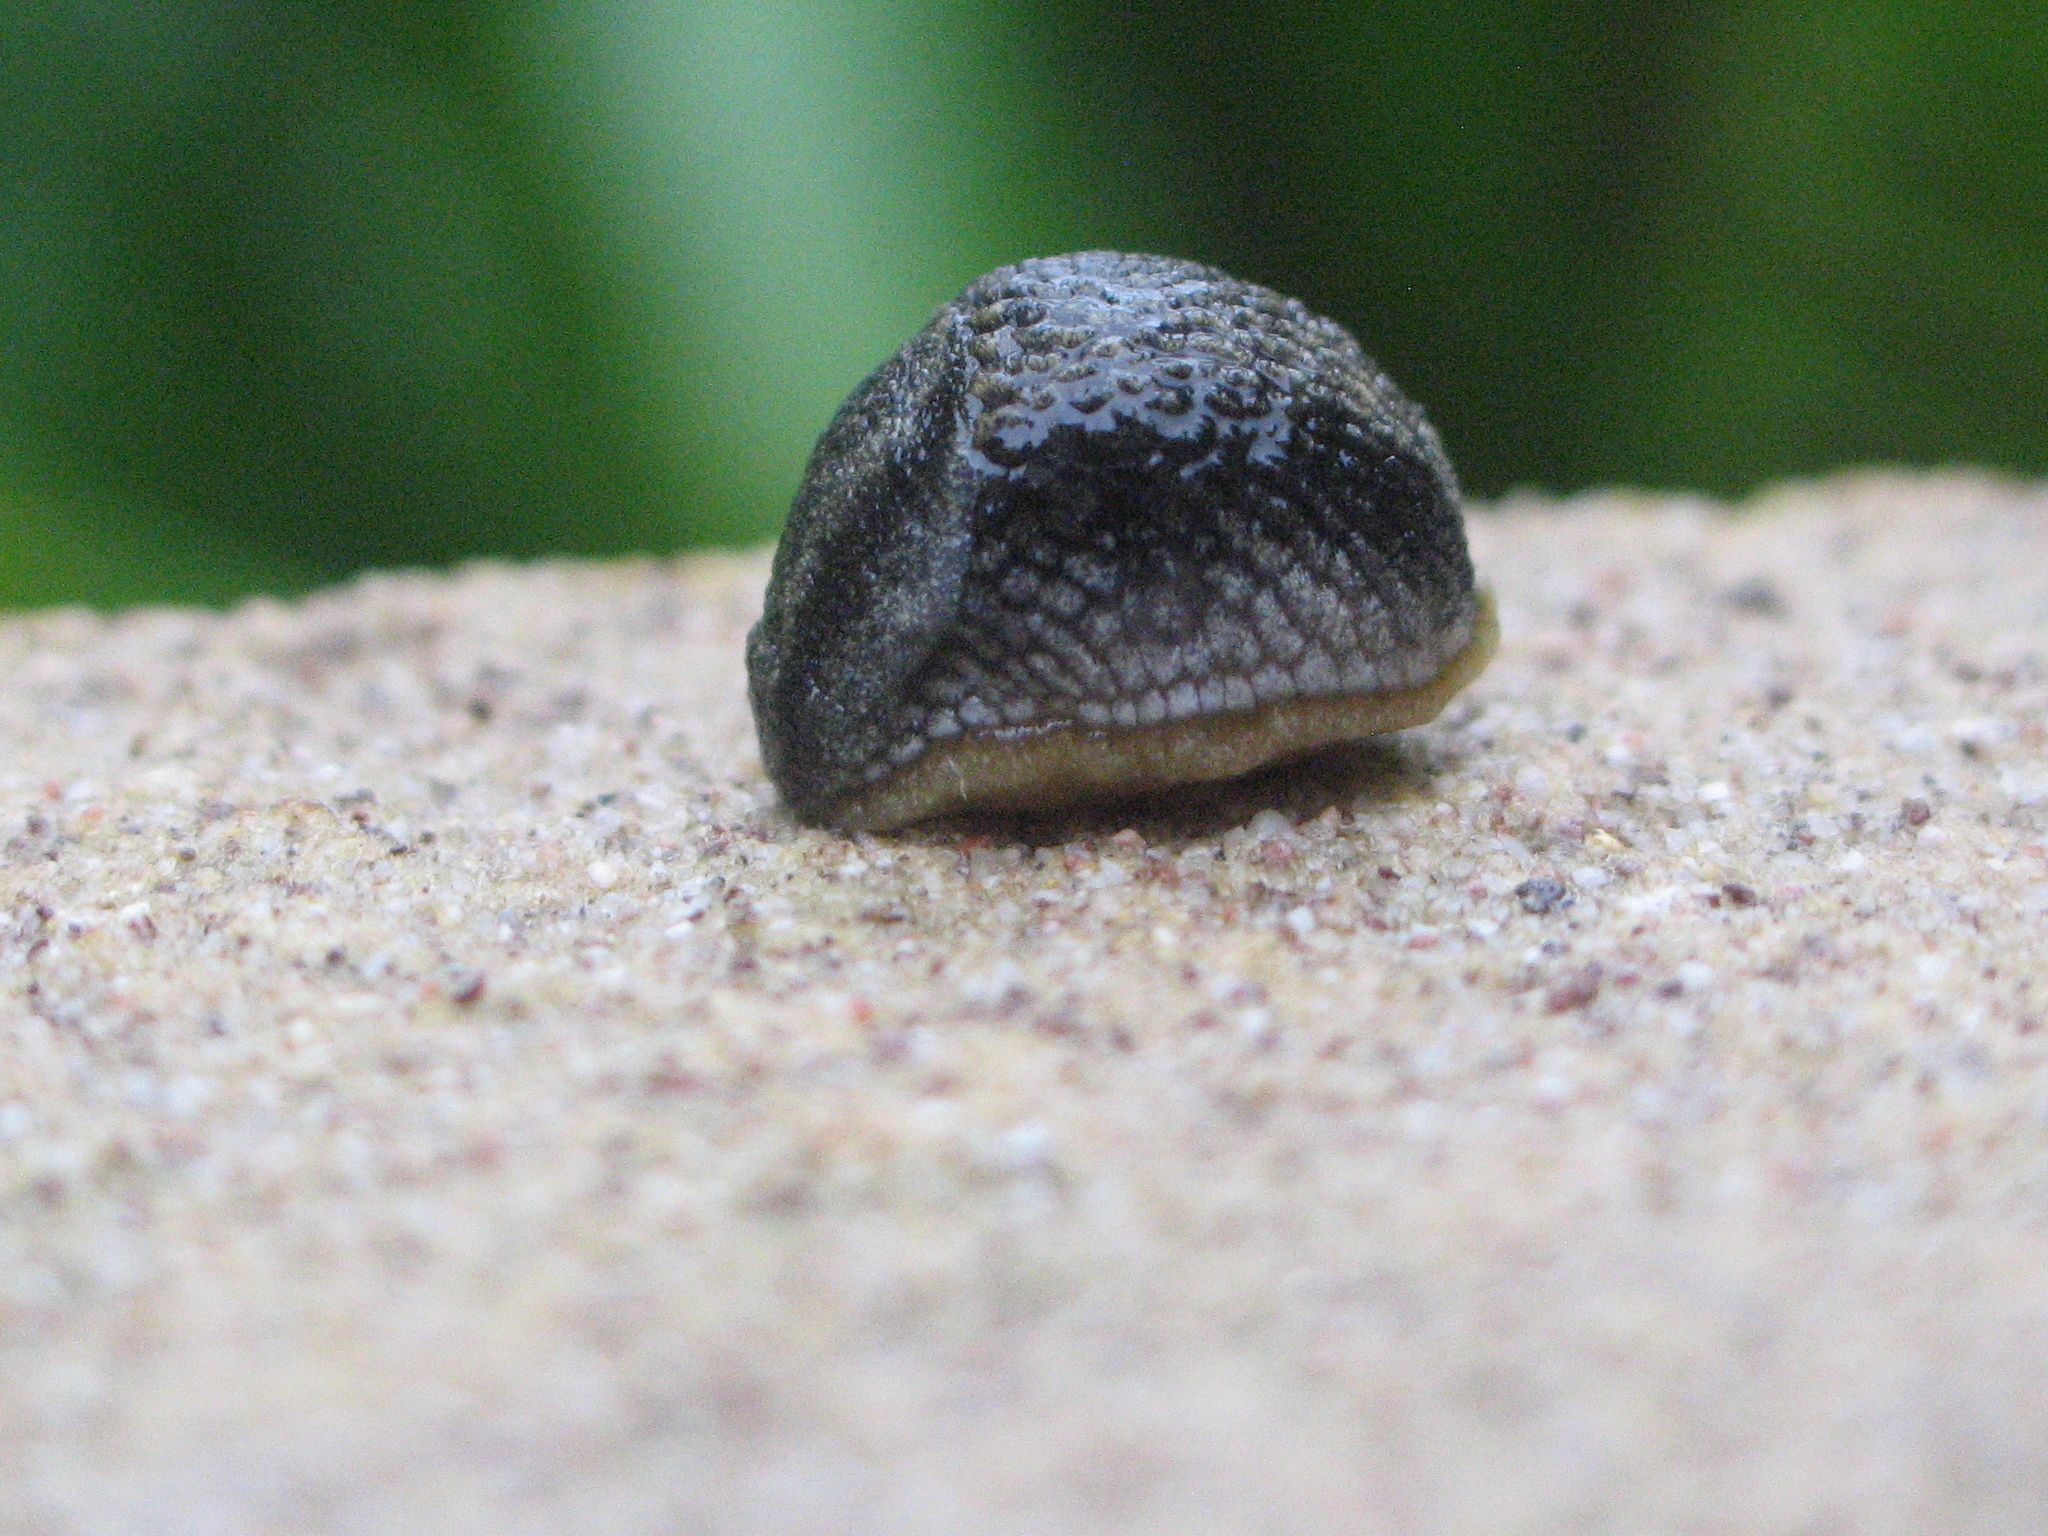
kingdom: Animalia
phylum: Mollusca
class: Gastropoda
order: Stylommatophora
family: Arionidae
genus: Arion
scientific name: Arion hortensis
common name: Garden arion
